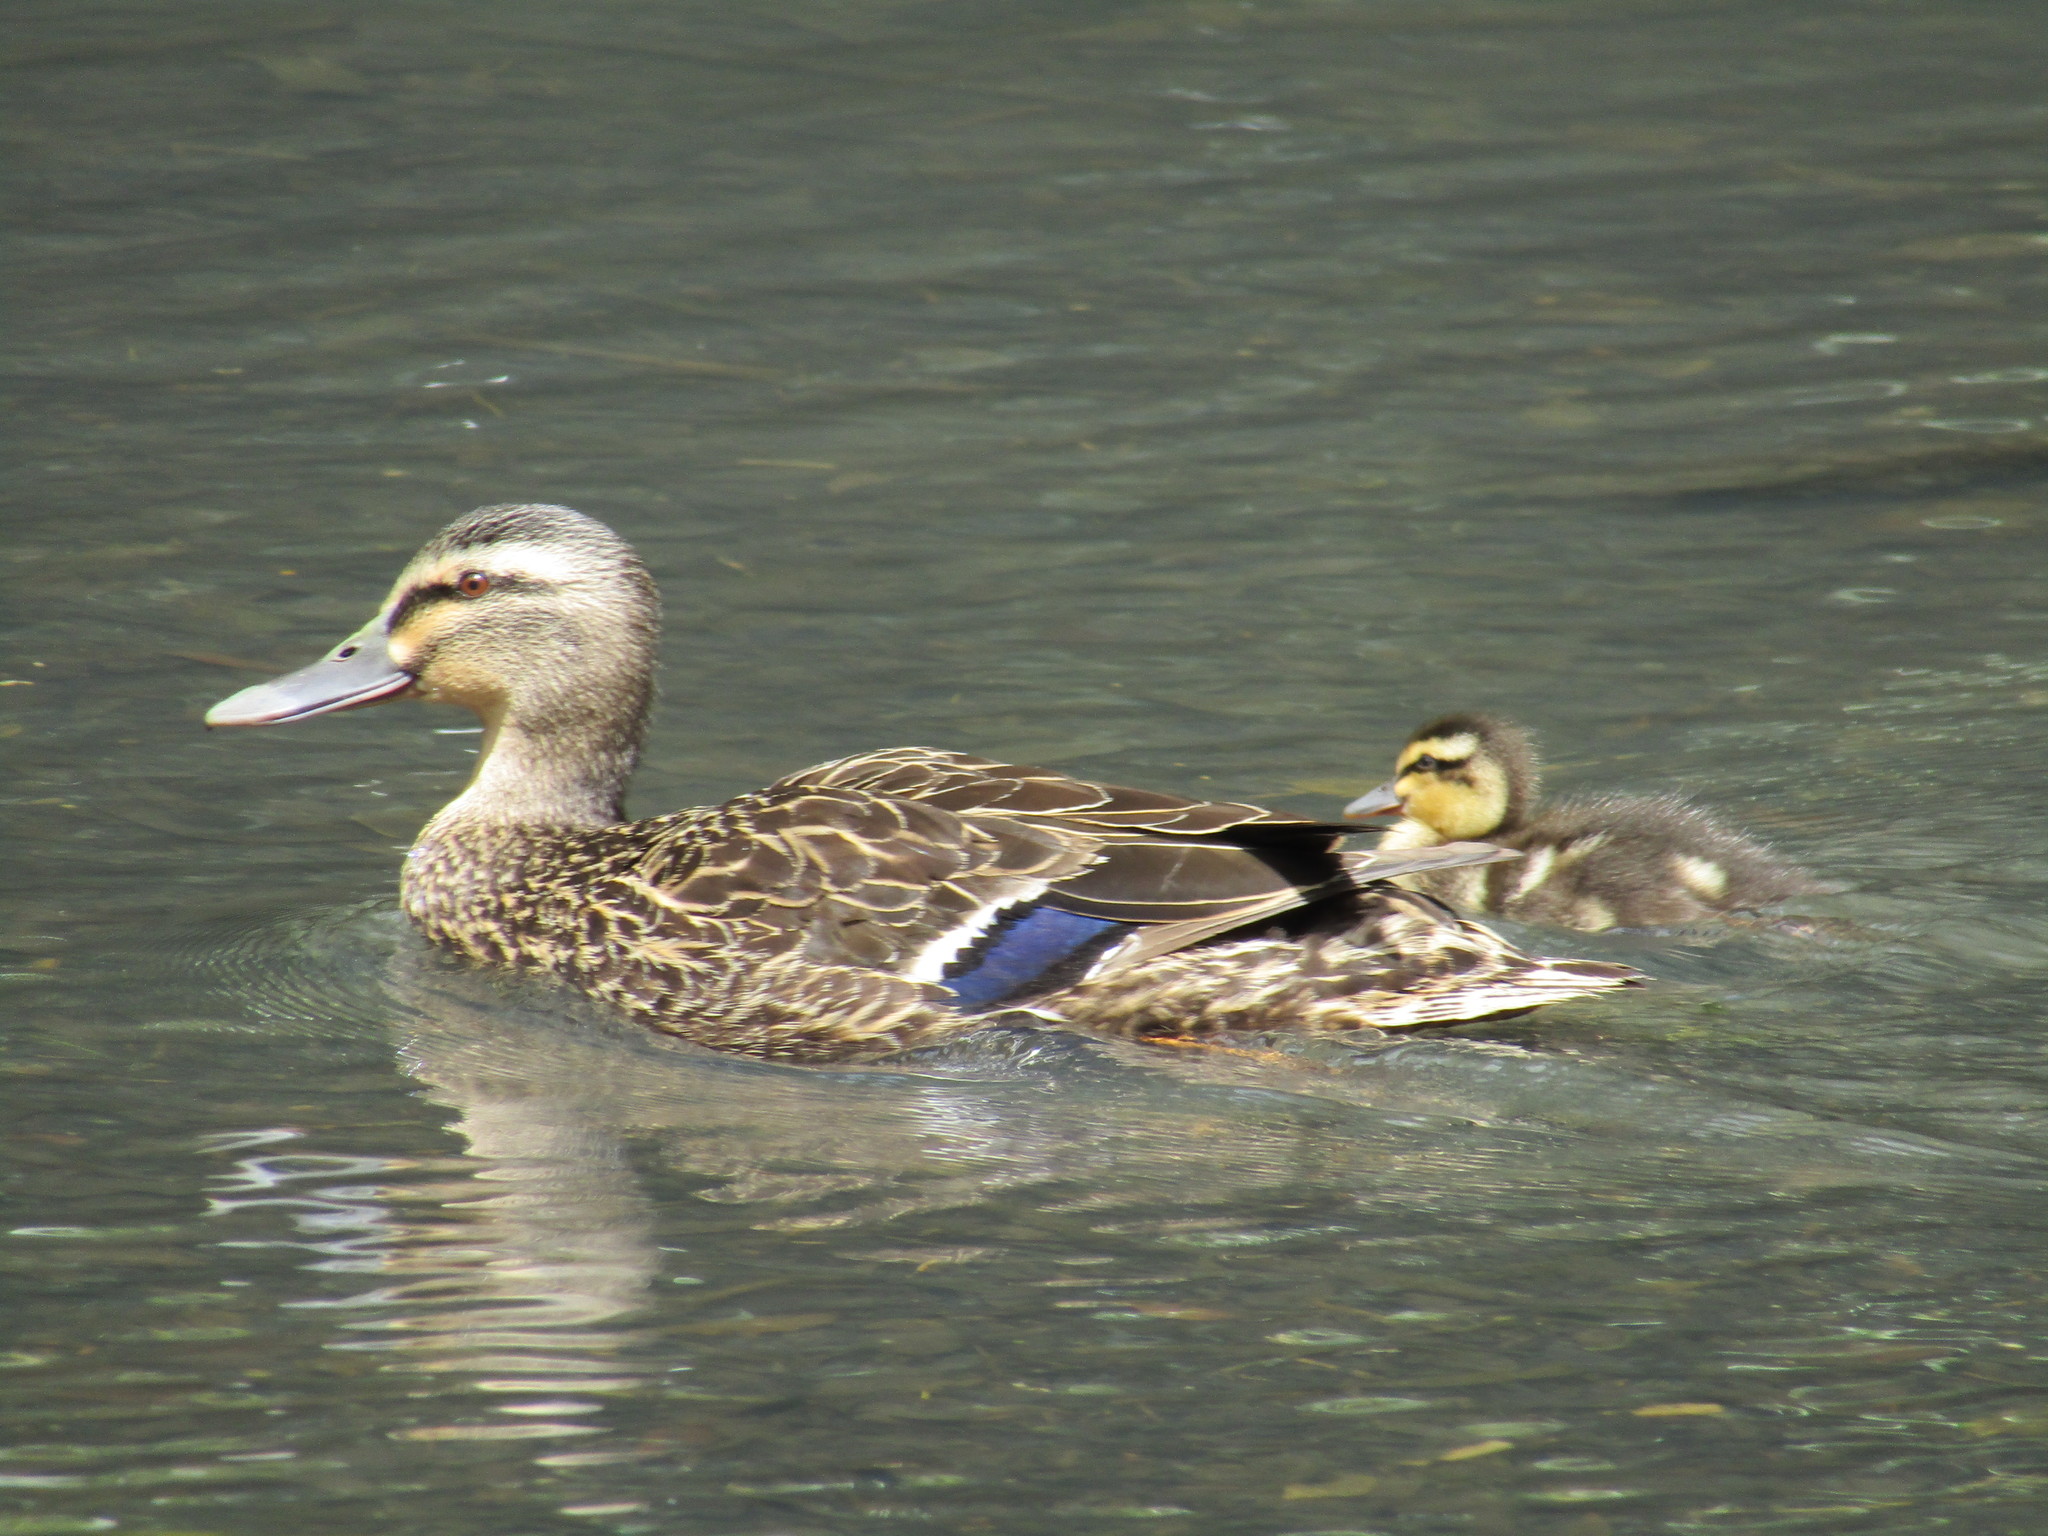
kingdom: Animalia
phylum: Chordata
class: Aves
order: Anseriformes
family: Anatidae
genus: Anas
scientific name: Anas
